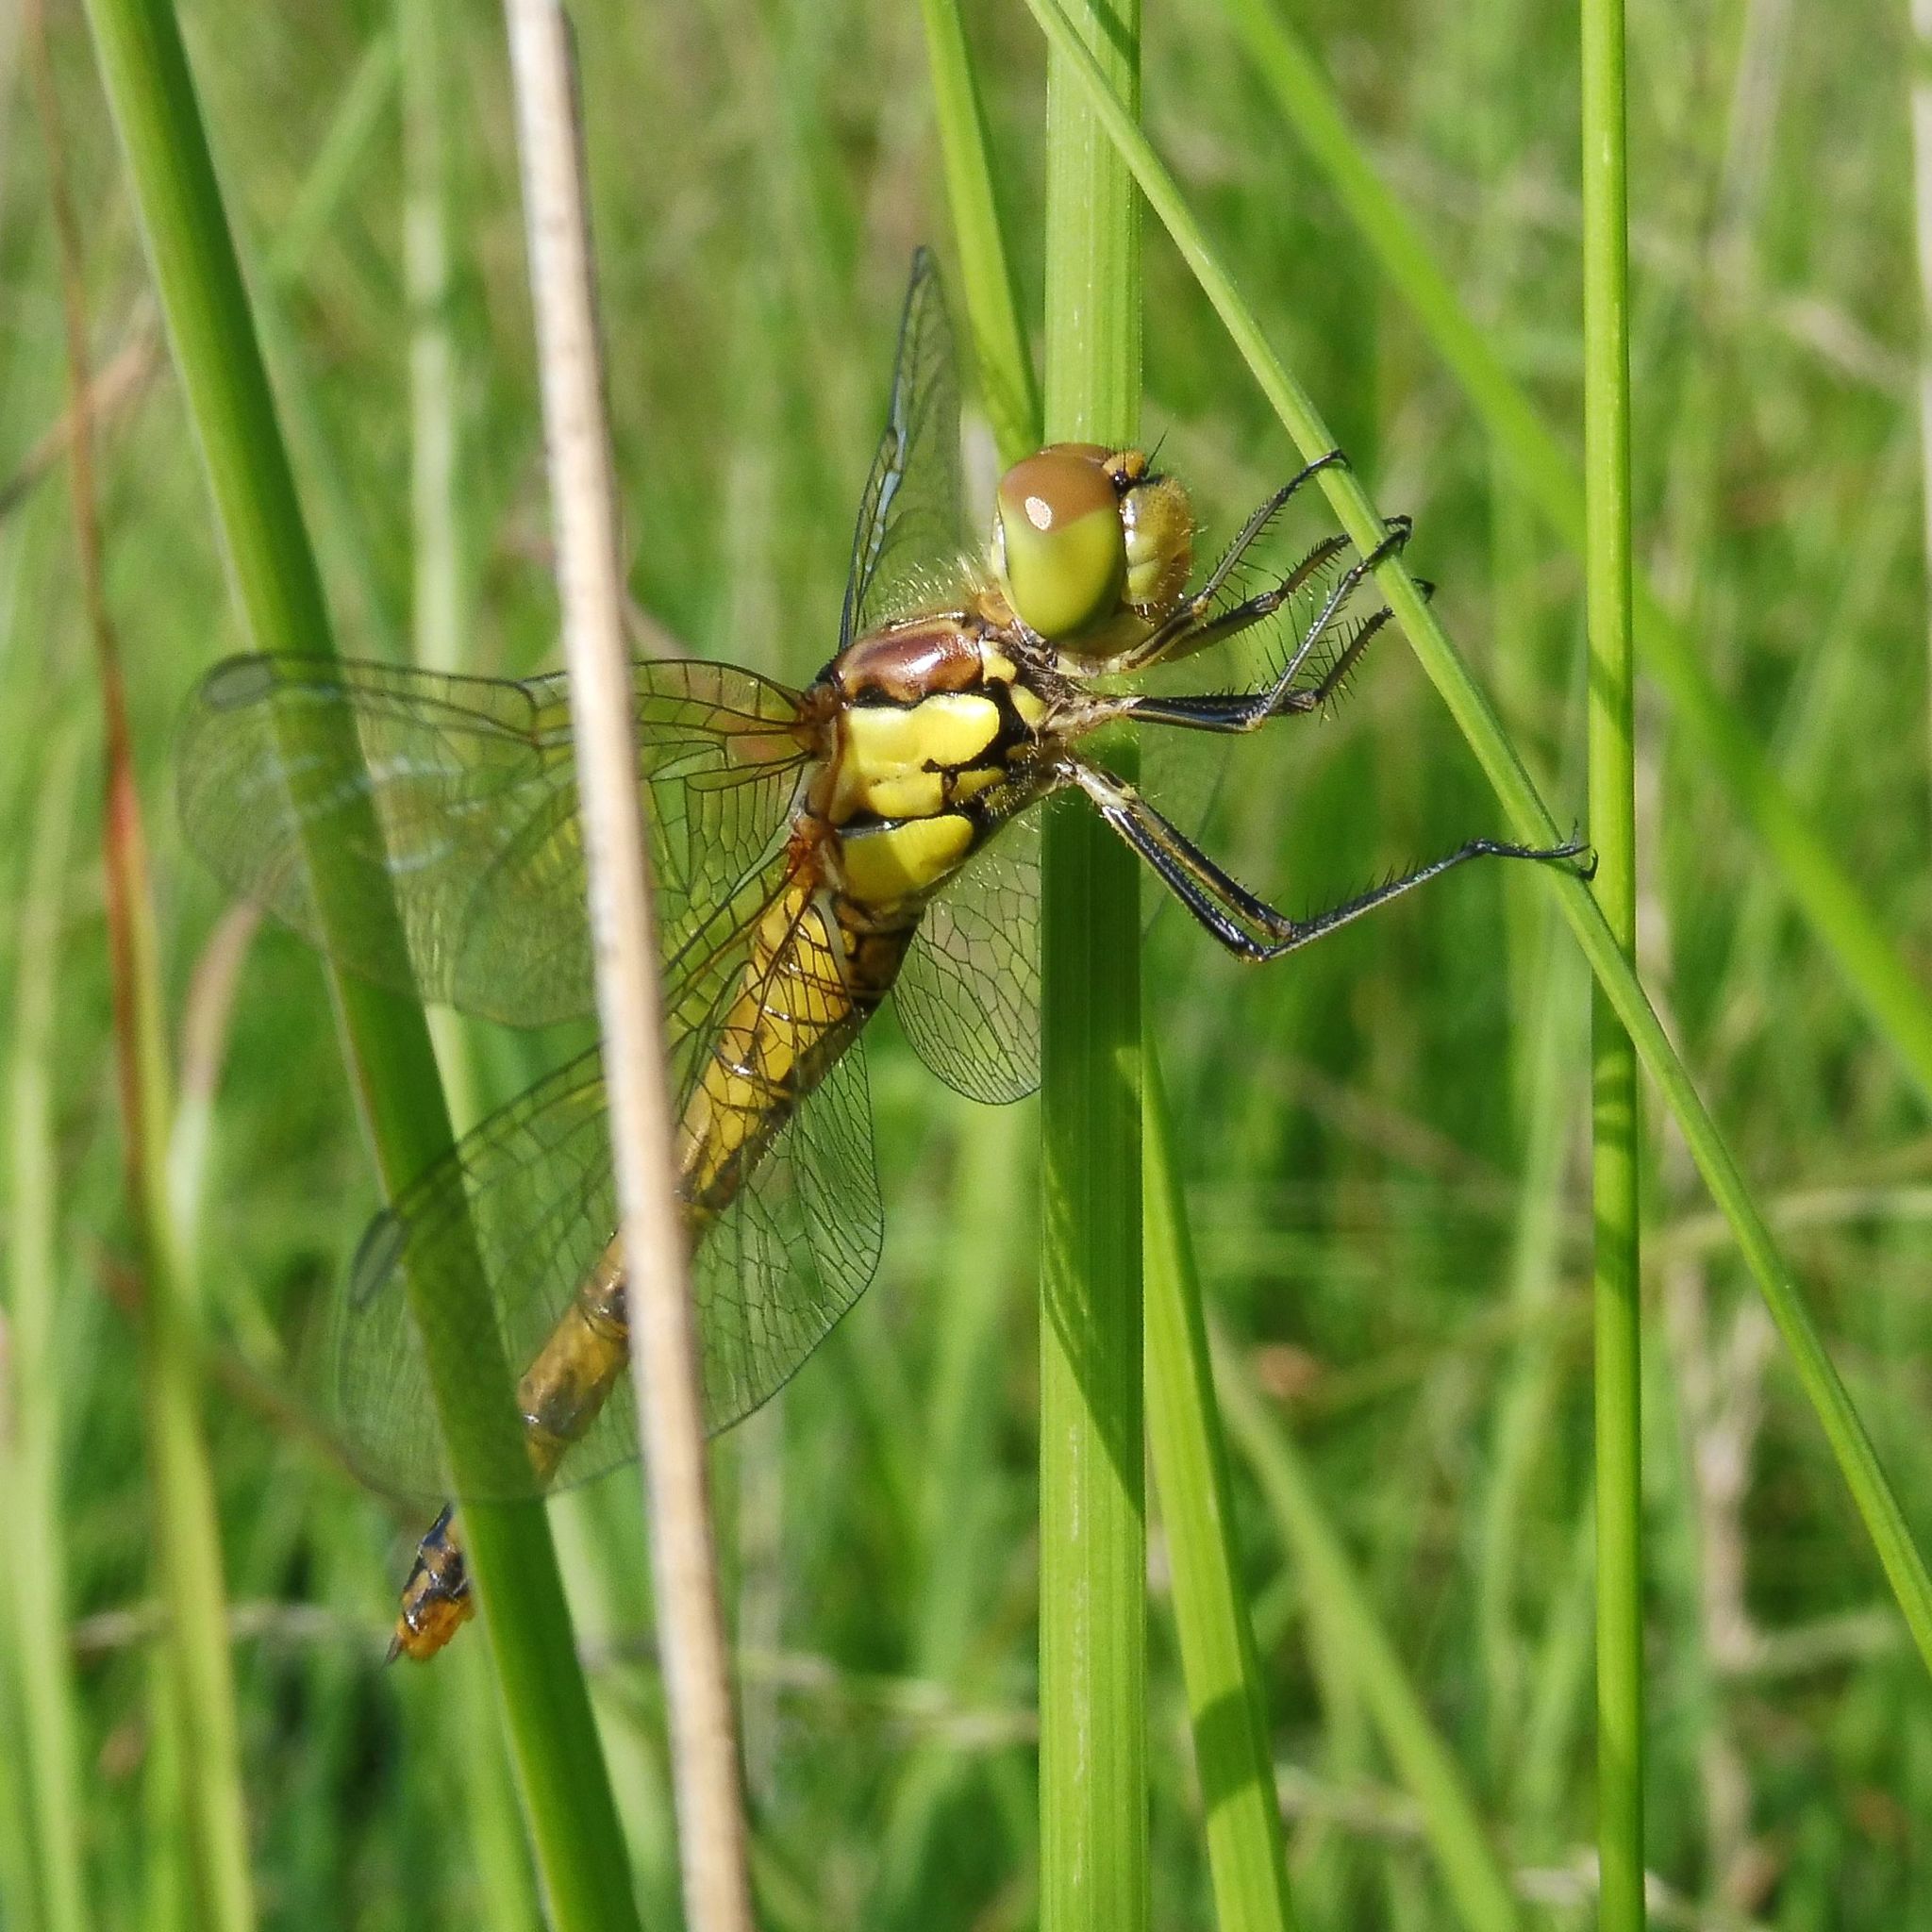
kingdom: Animalia
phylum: Arthropoda
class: Insecta
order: Odonata
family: Libellulidae
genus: Sympetrum
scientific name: Sympetrum striolatum
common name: Common darter
